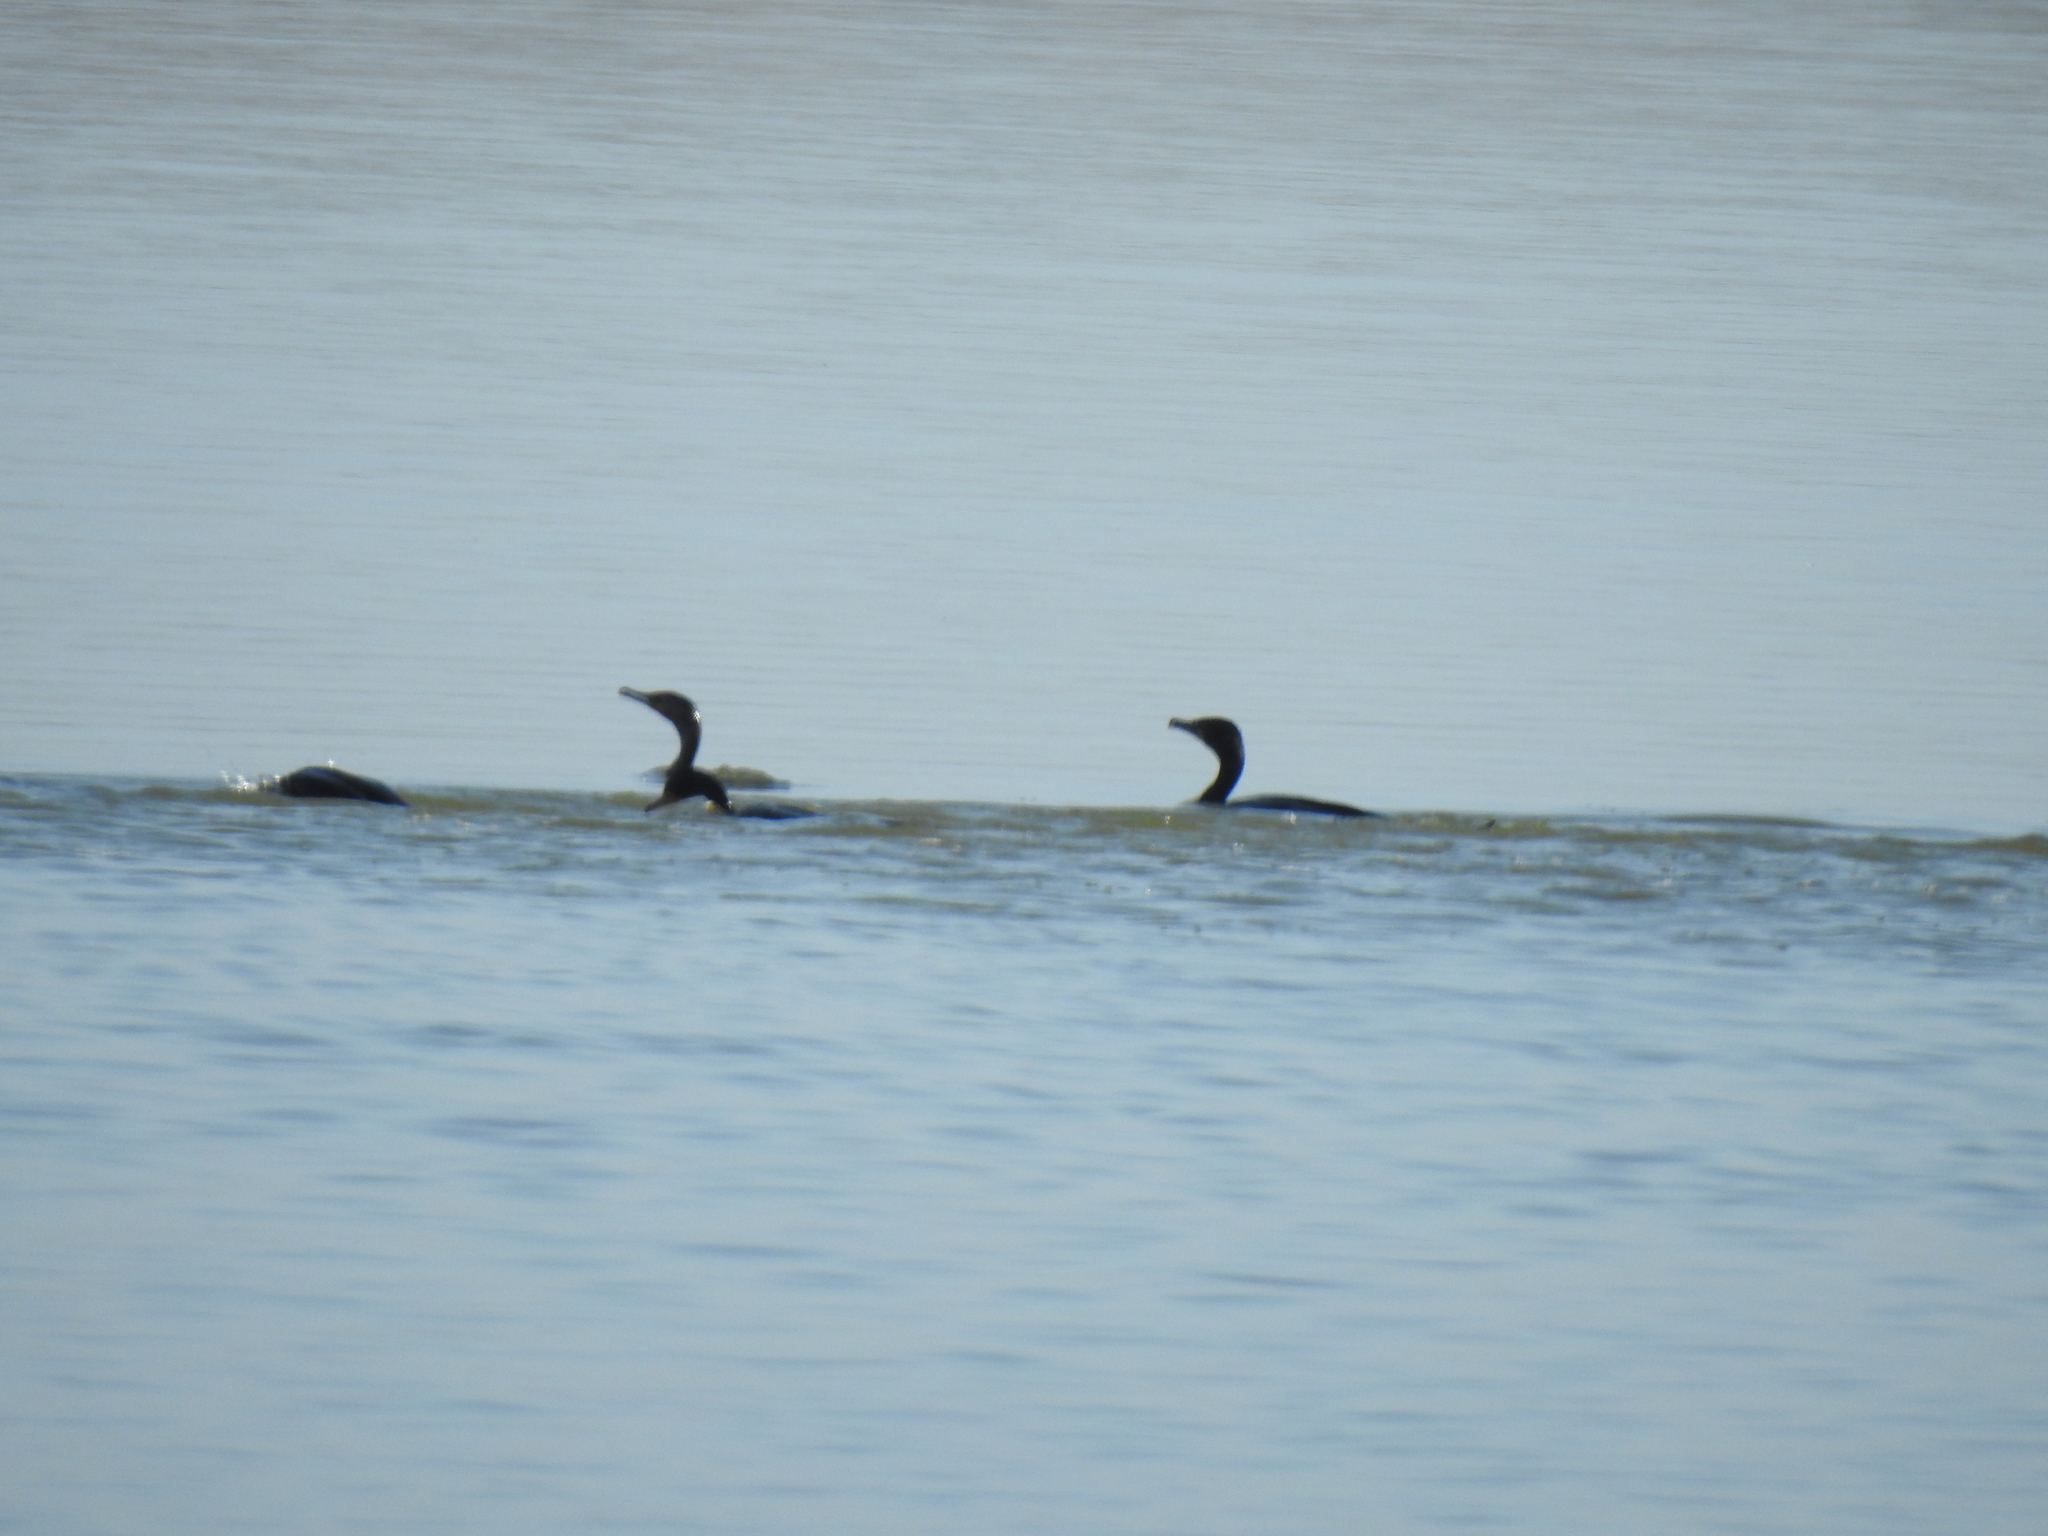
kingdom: Animalia
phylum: Chordata
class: Aves
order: Suliformes
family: Phalacrocoracidae
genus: Phalacrocorax
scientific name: Phalacrocorax auritus
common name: Double-crested cormorant
